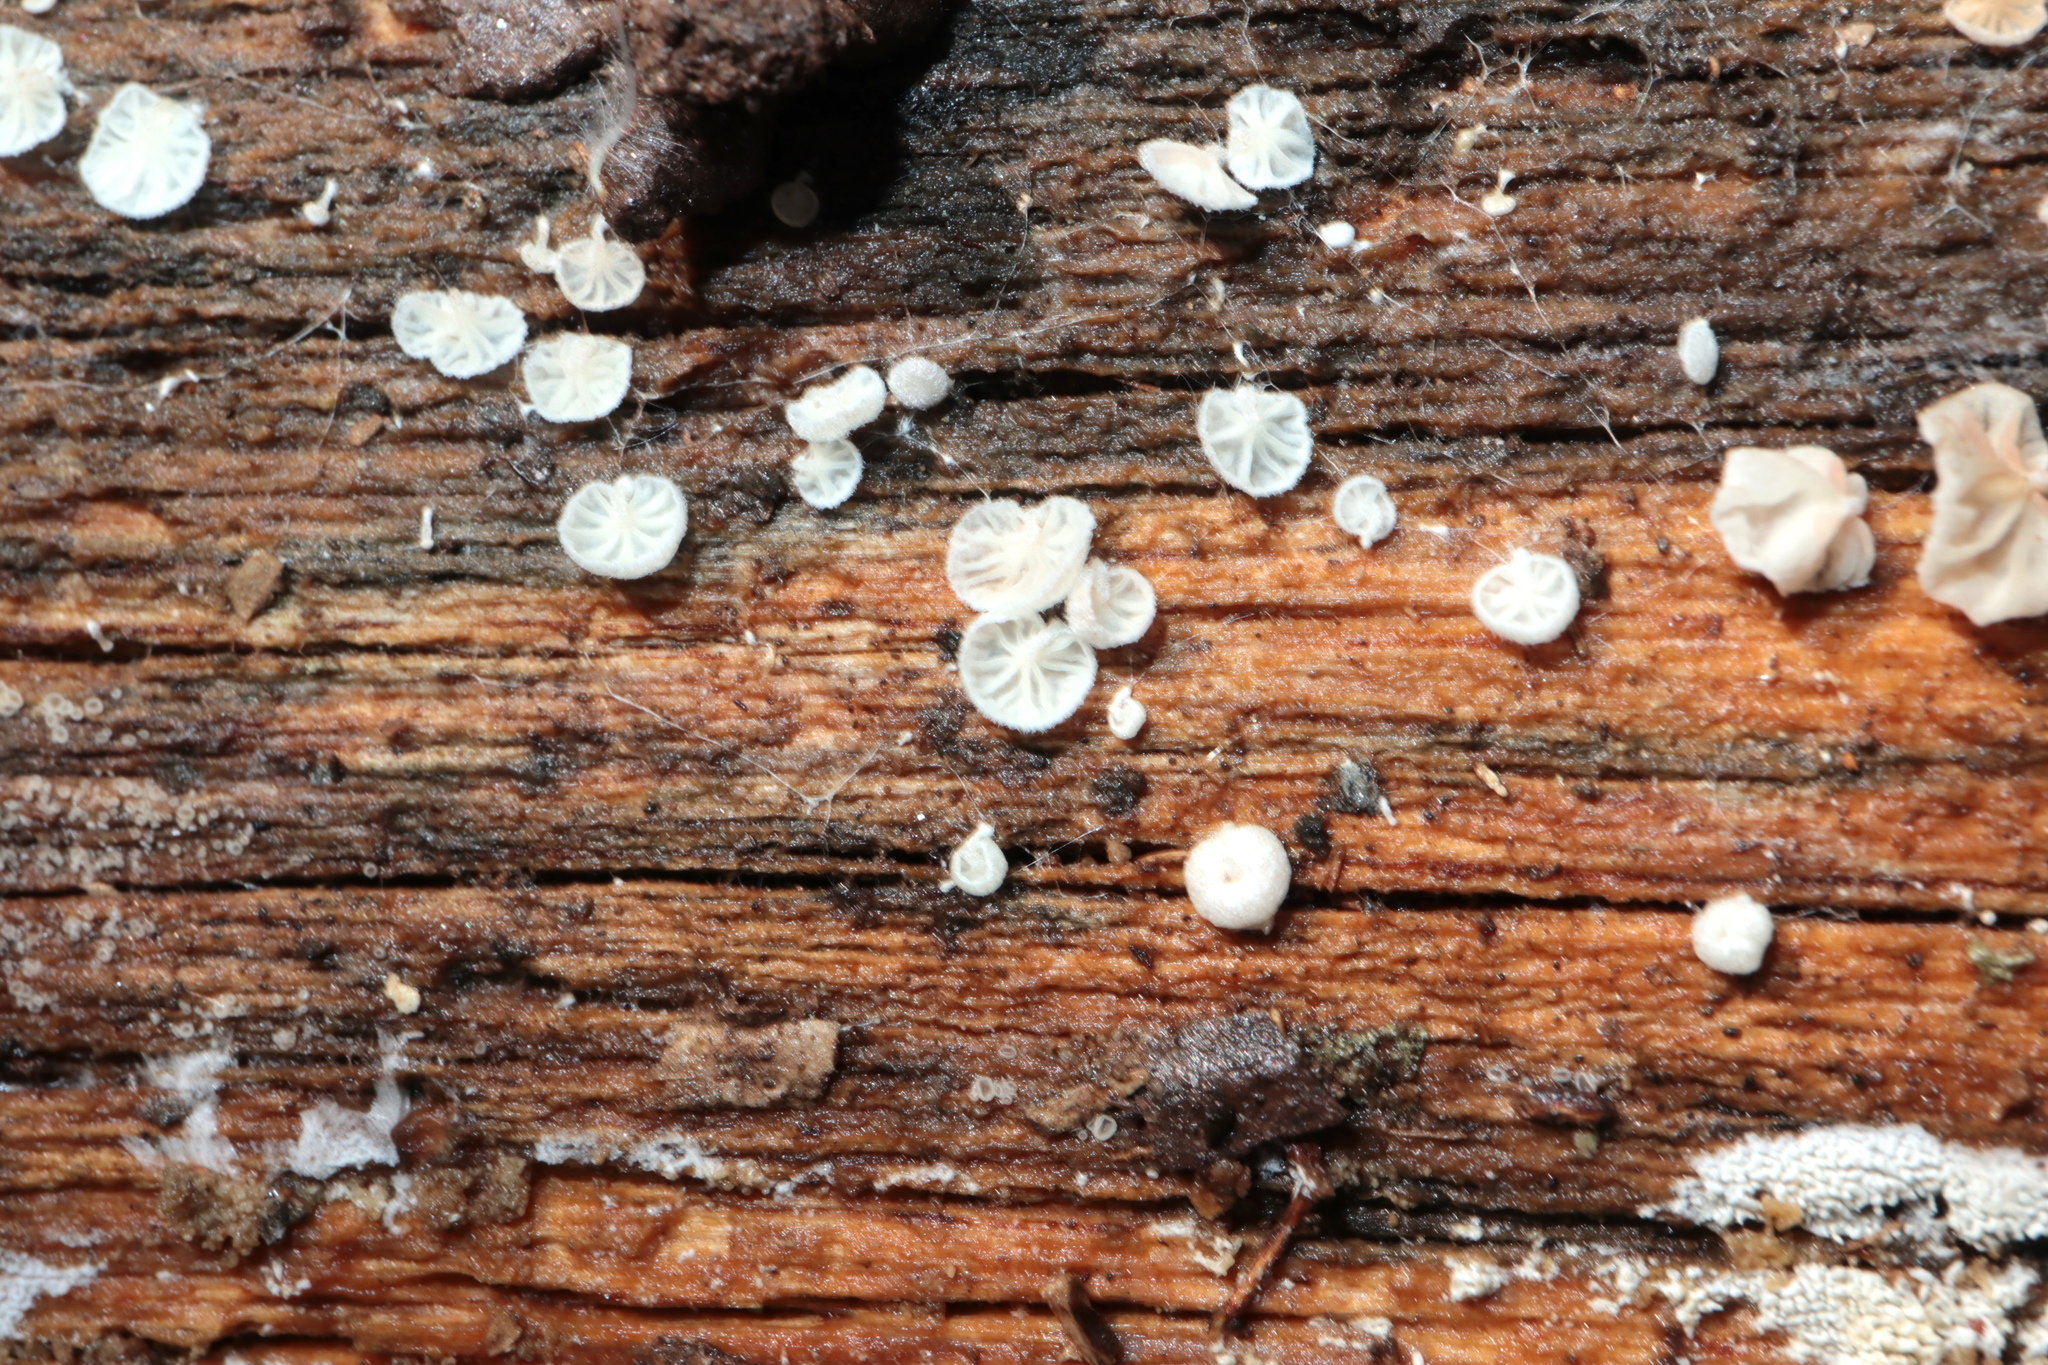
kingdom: Fungi
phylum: Basidiomycota
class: Agaricomycetes
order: Agaricales
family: Omphalotaceae
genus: Marasmiellus
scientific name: Marasmiellus candidus
